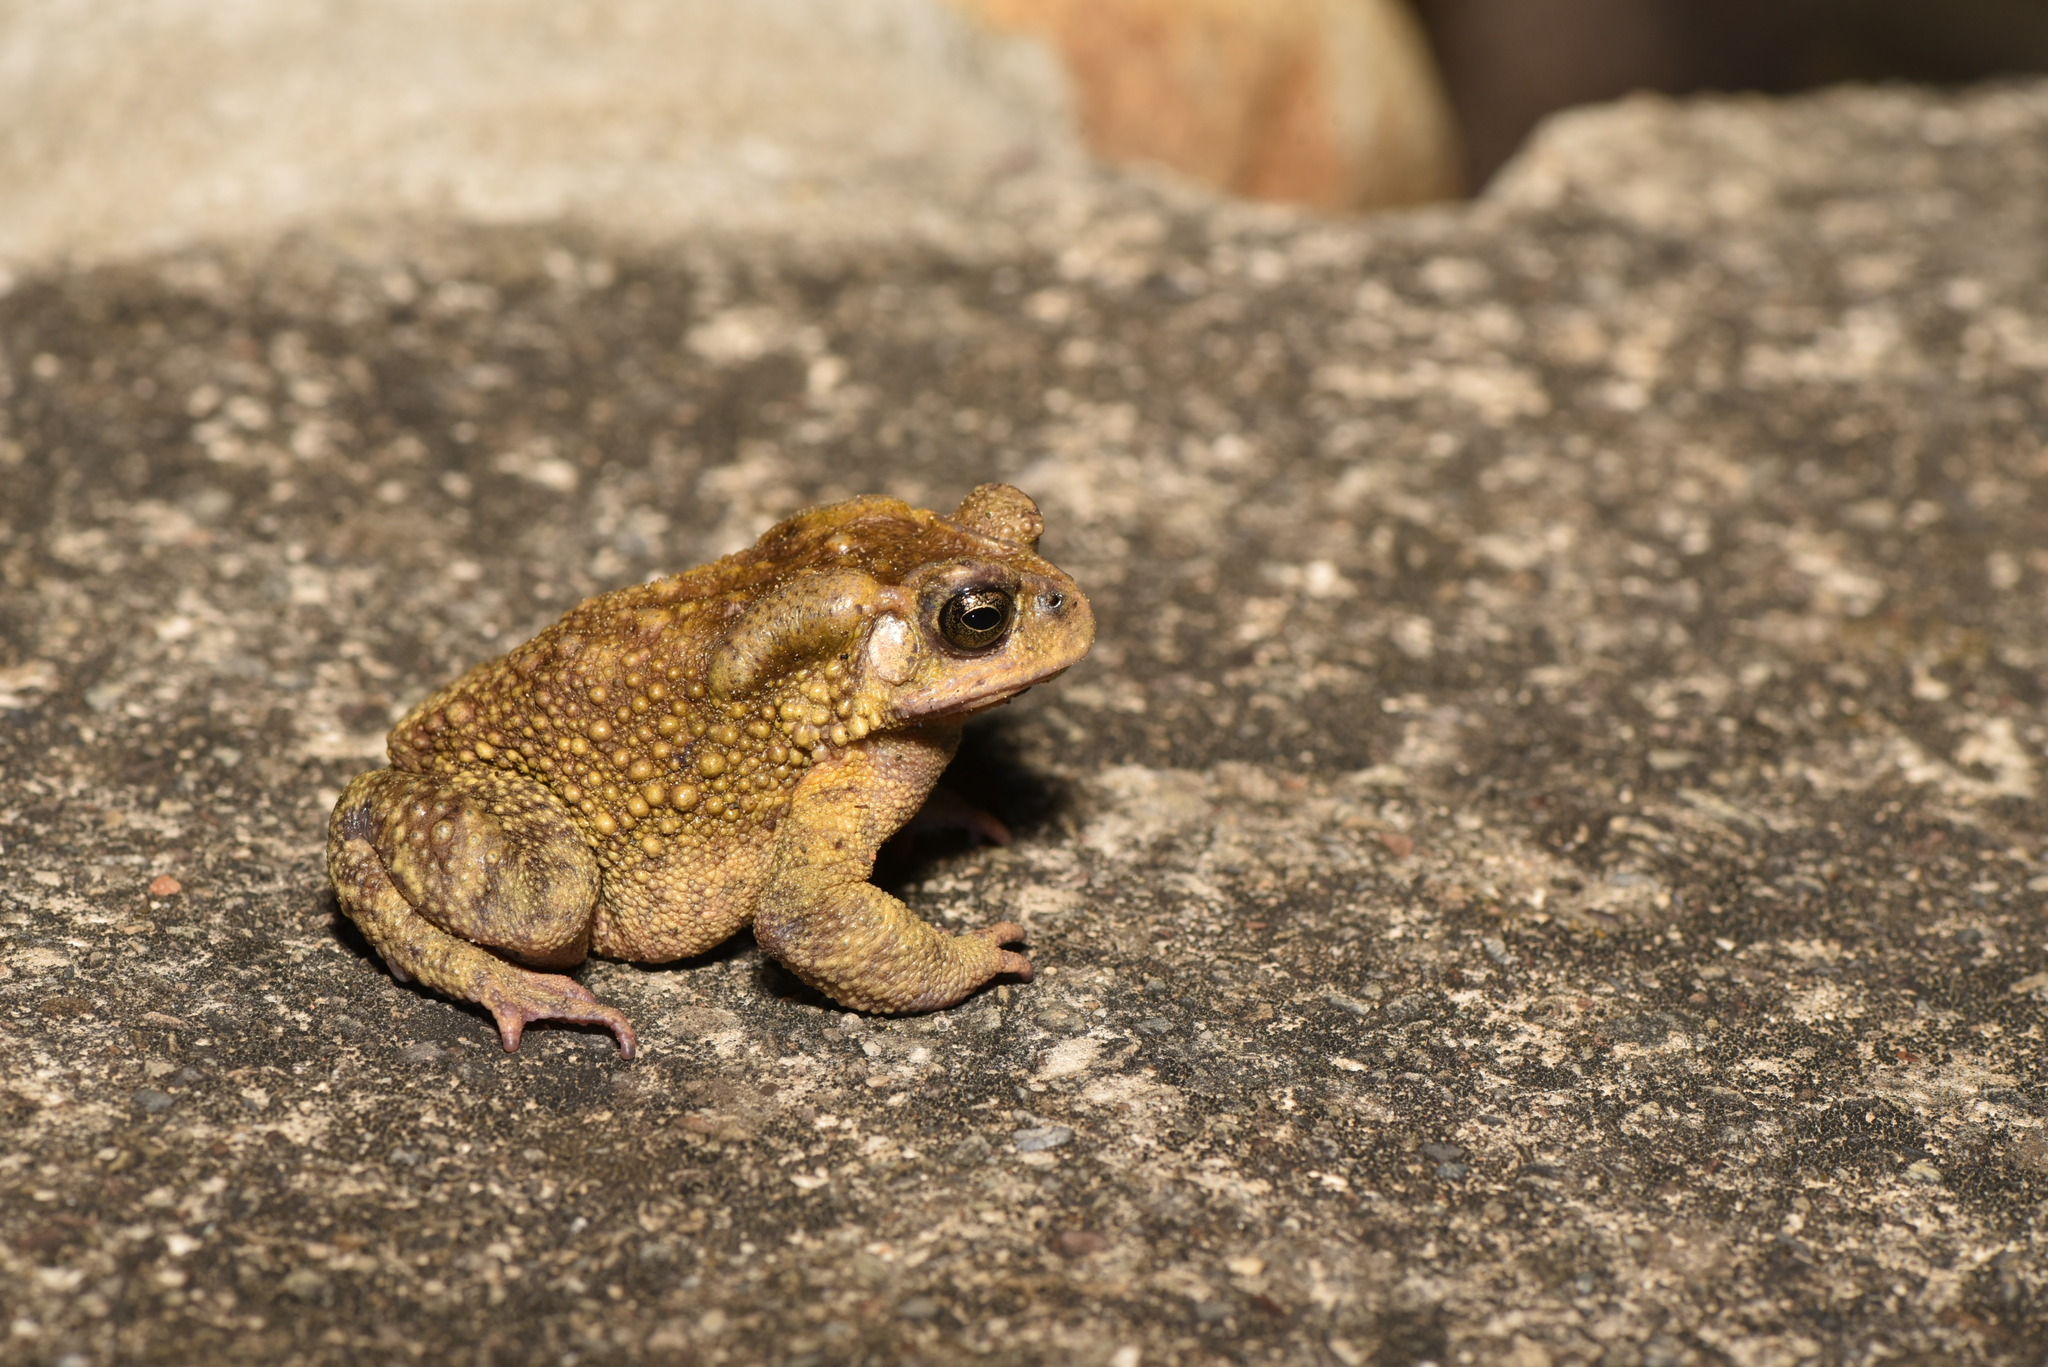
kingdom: Animalia
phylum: Chordata
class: Amphibia
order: Anura
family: Bufonidae
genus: Duttaphrynus
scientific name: Duttaphrynus melanostictus
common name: Common sunda toad
